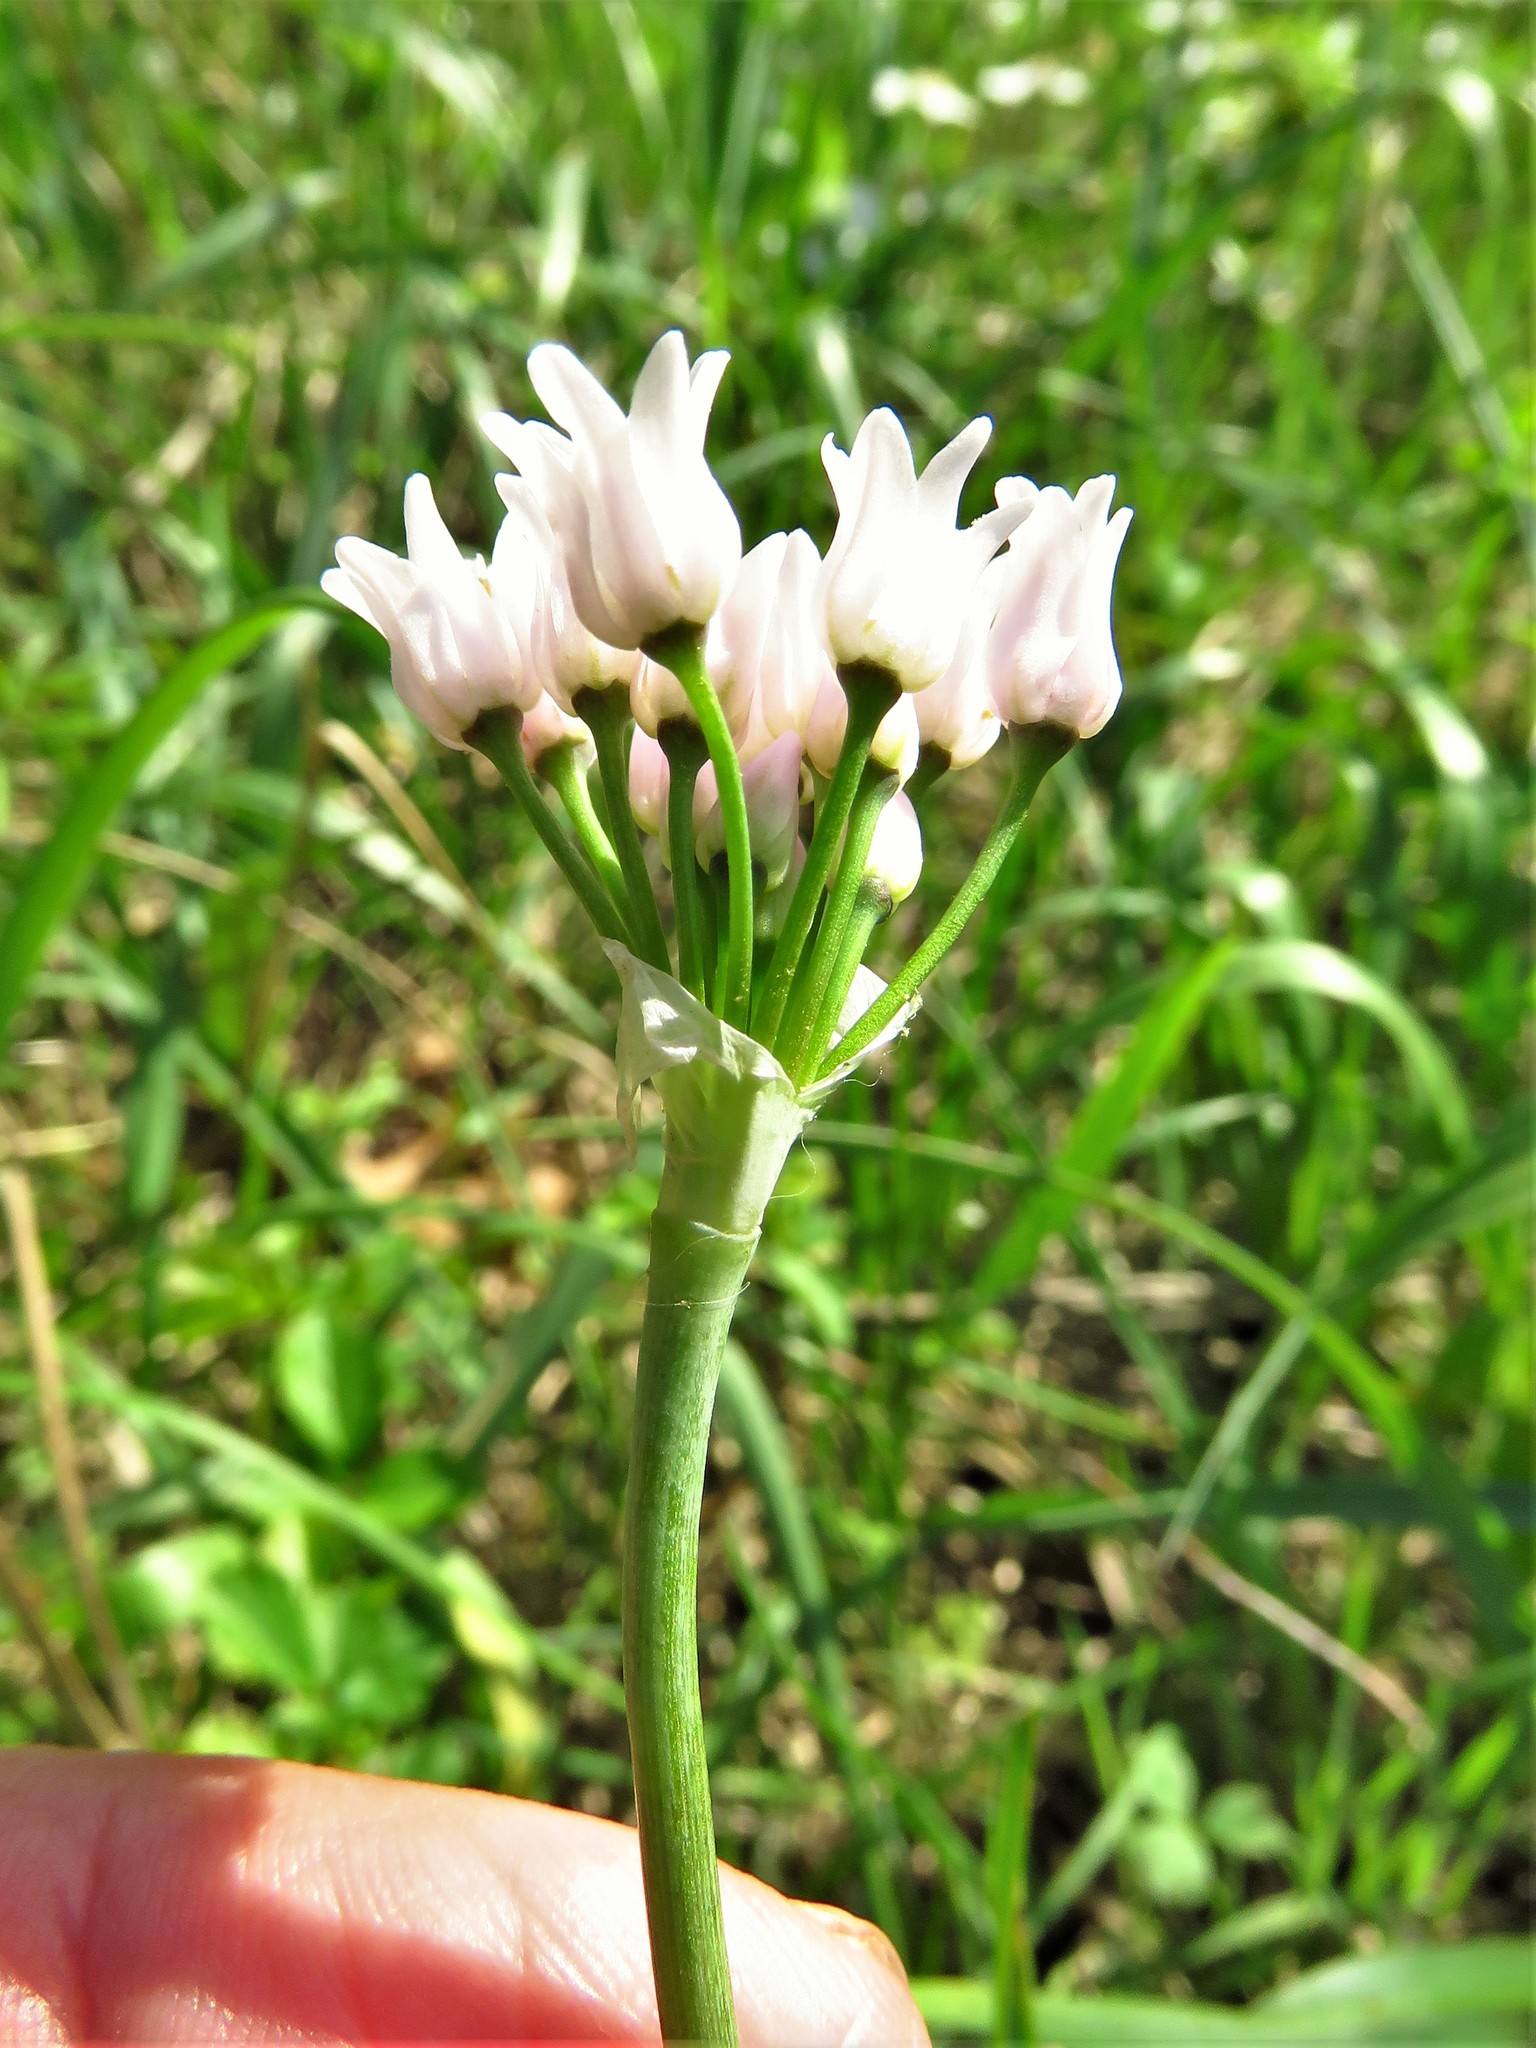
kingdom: Plantae
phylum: Tracheophyta
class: Liliopsida
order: Asparagales
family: Amaryllidaceae
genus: Allium
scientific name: Allium drummondii
